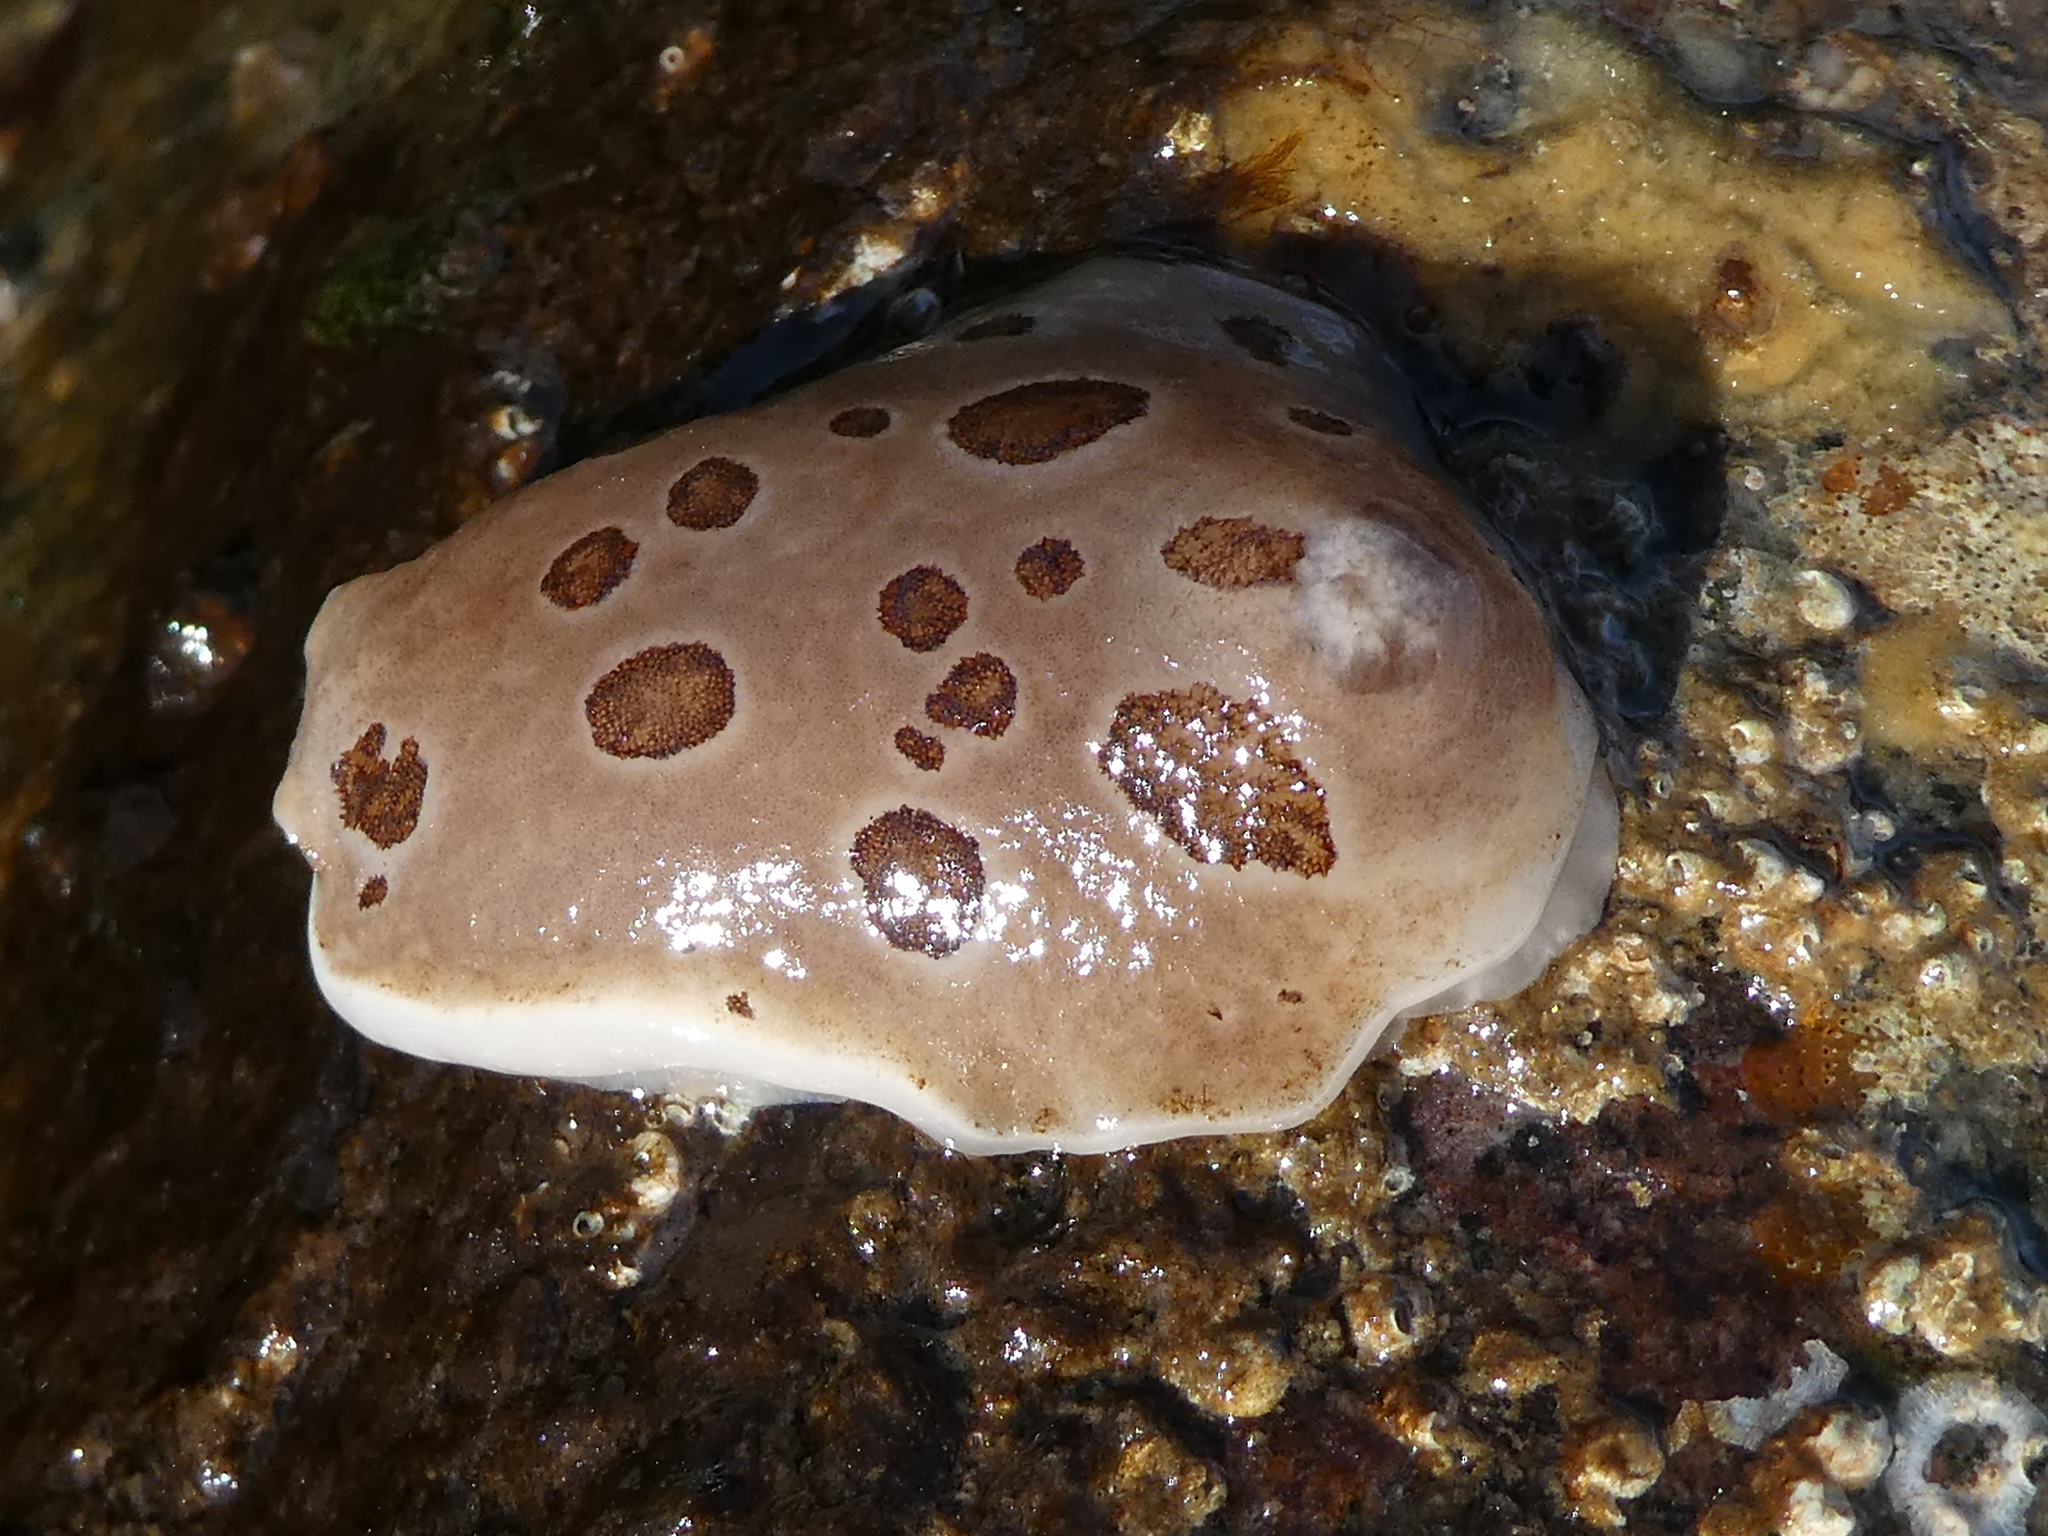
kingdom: Animalia
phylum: Mollusca
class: Gastropoda
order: Nudibranchia
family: Discodorididae
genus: Diaulula
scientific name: Diaulula odonoghuei
